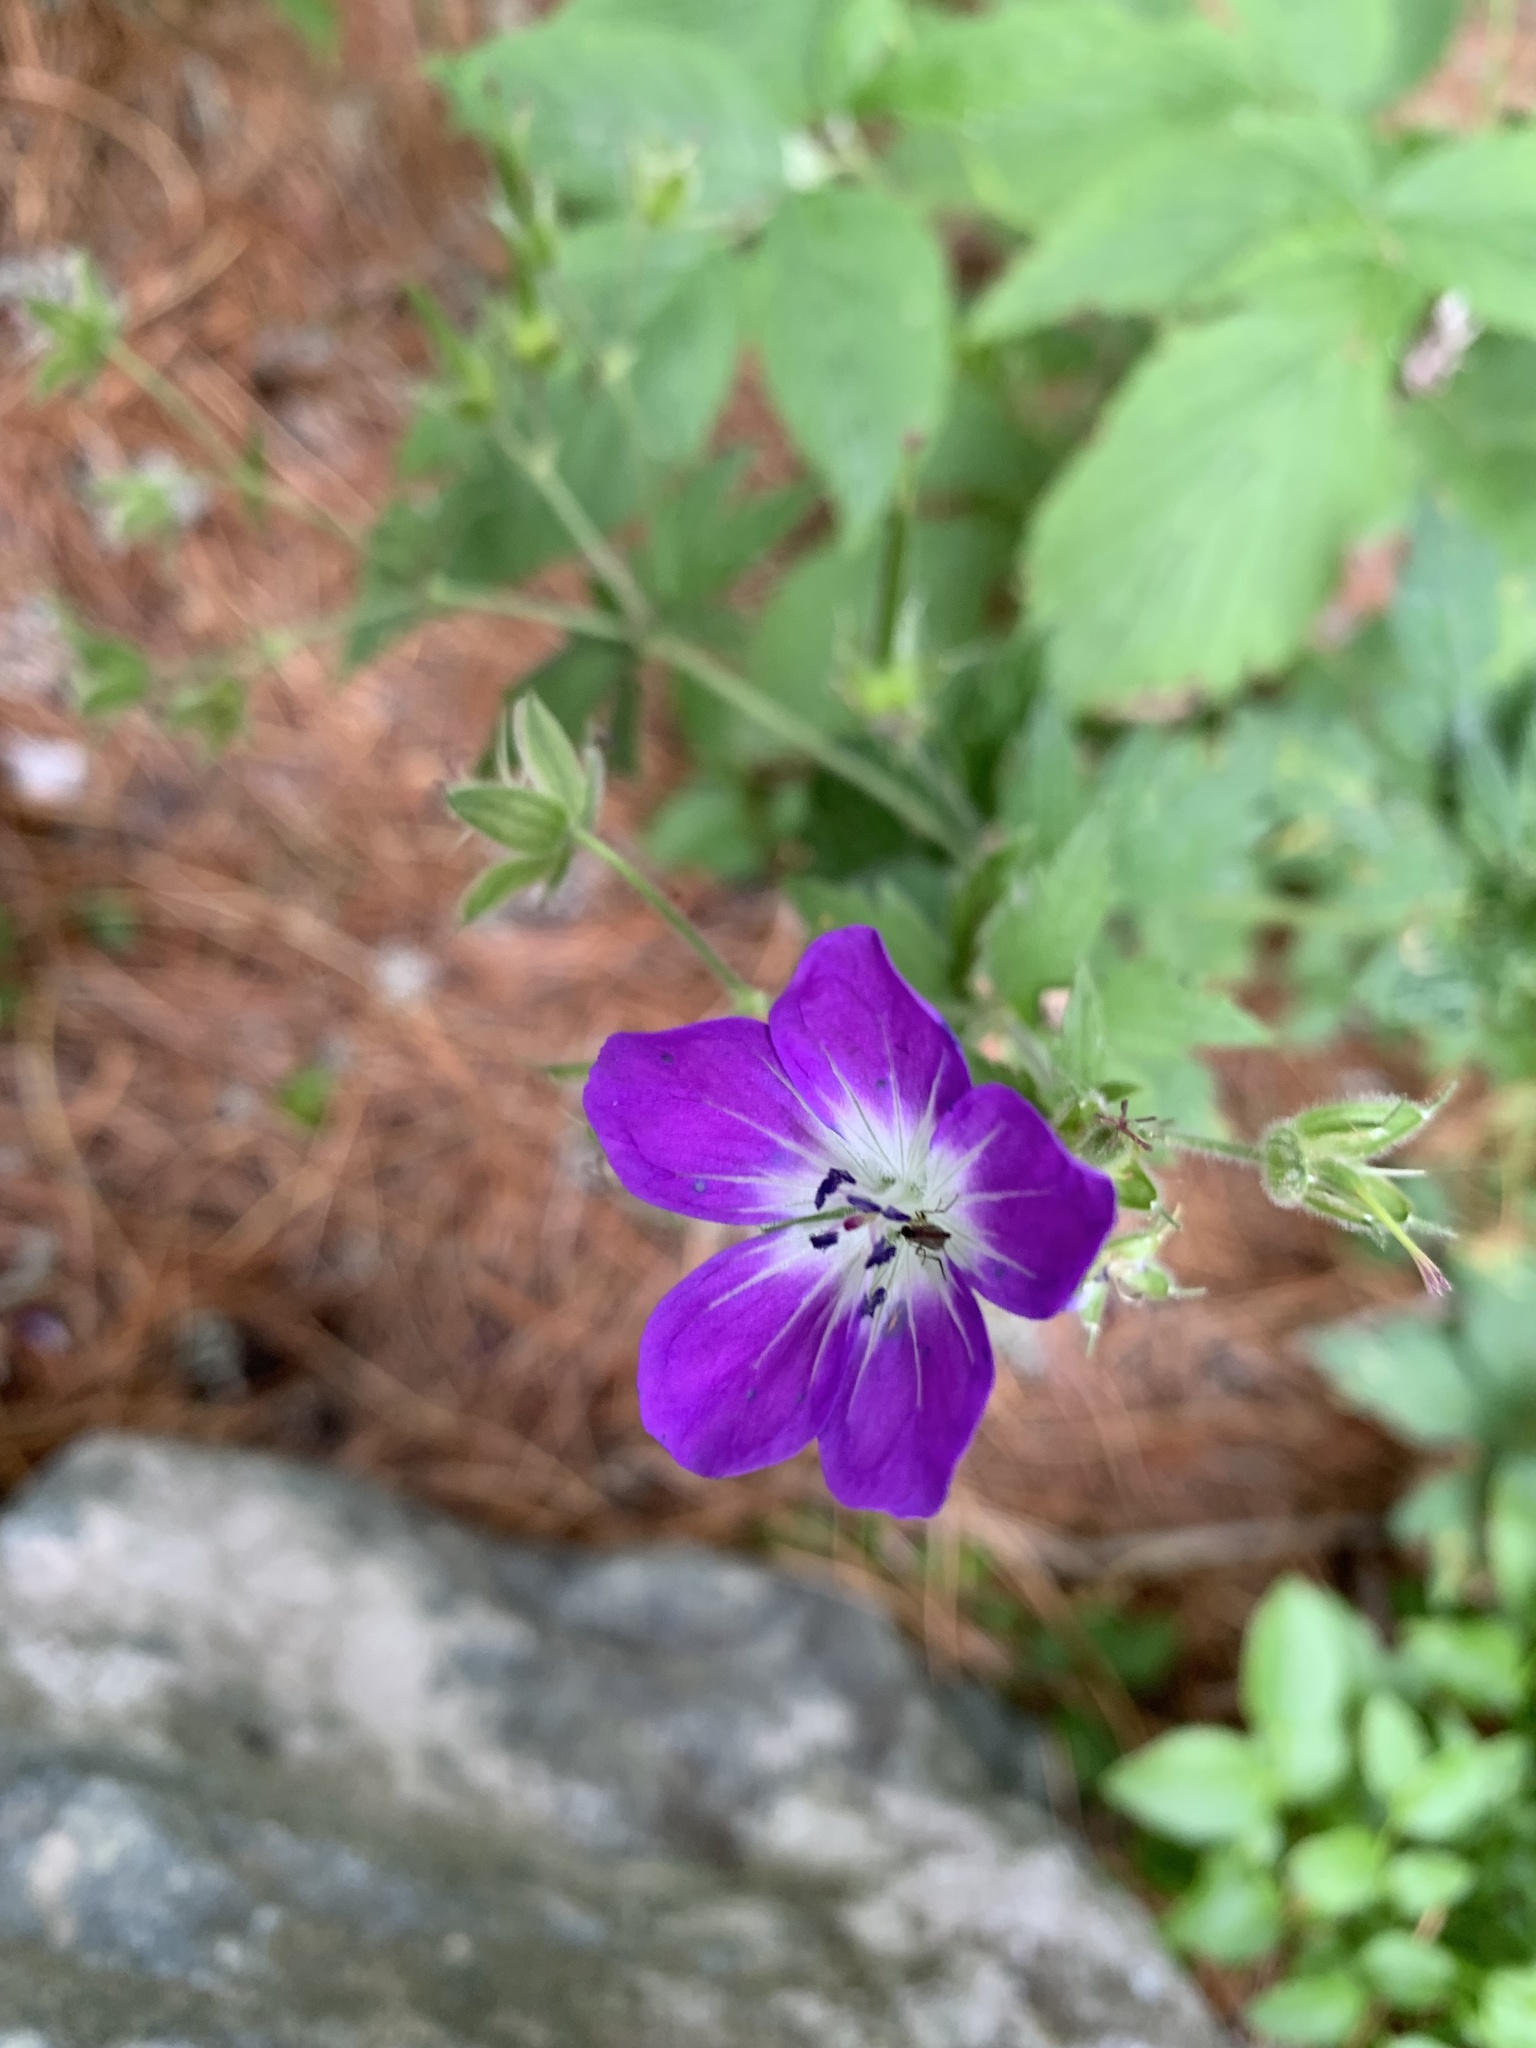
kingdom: Plantae
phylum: Tracheophyta
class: Magnoliopsida
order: Geraniales
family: Geraniaceae
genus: Geranium
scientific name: Geranium sylvaticum
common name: Wood crane's-bill
